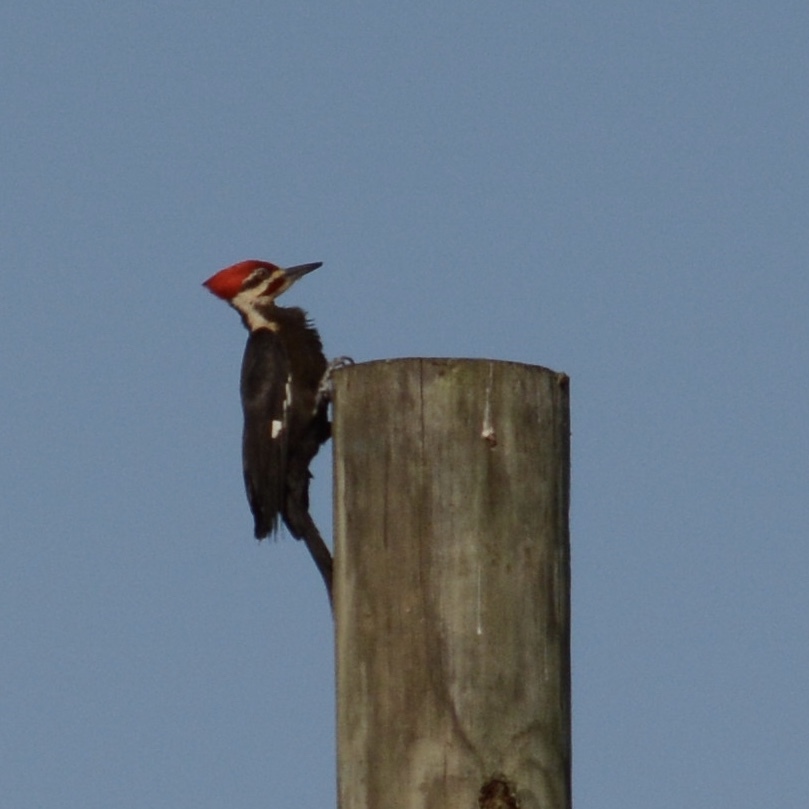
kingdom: Animalia
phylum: Chordata
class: Aves
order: Piciformes
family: Picidae
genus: Dryocopus
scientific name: Dryocopus pileatus
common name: Pileated woodpecker
